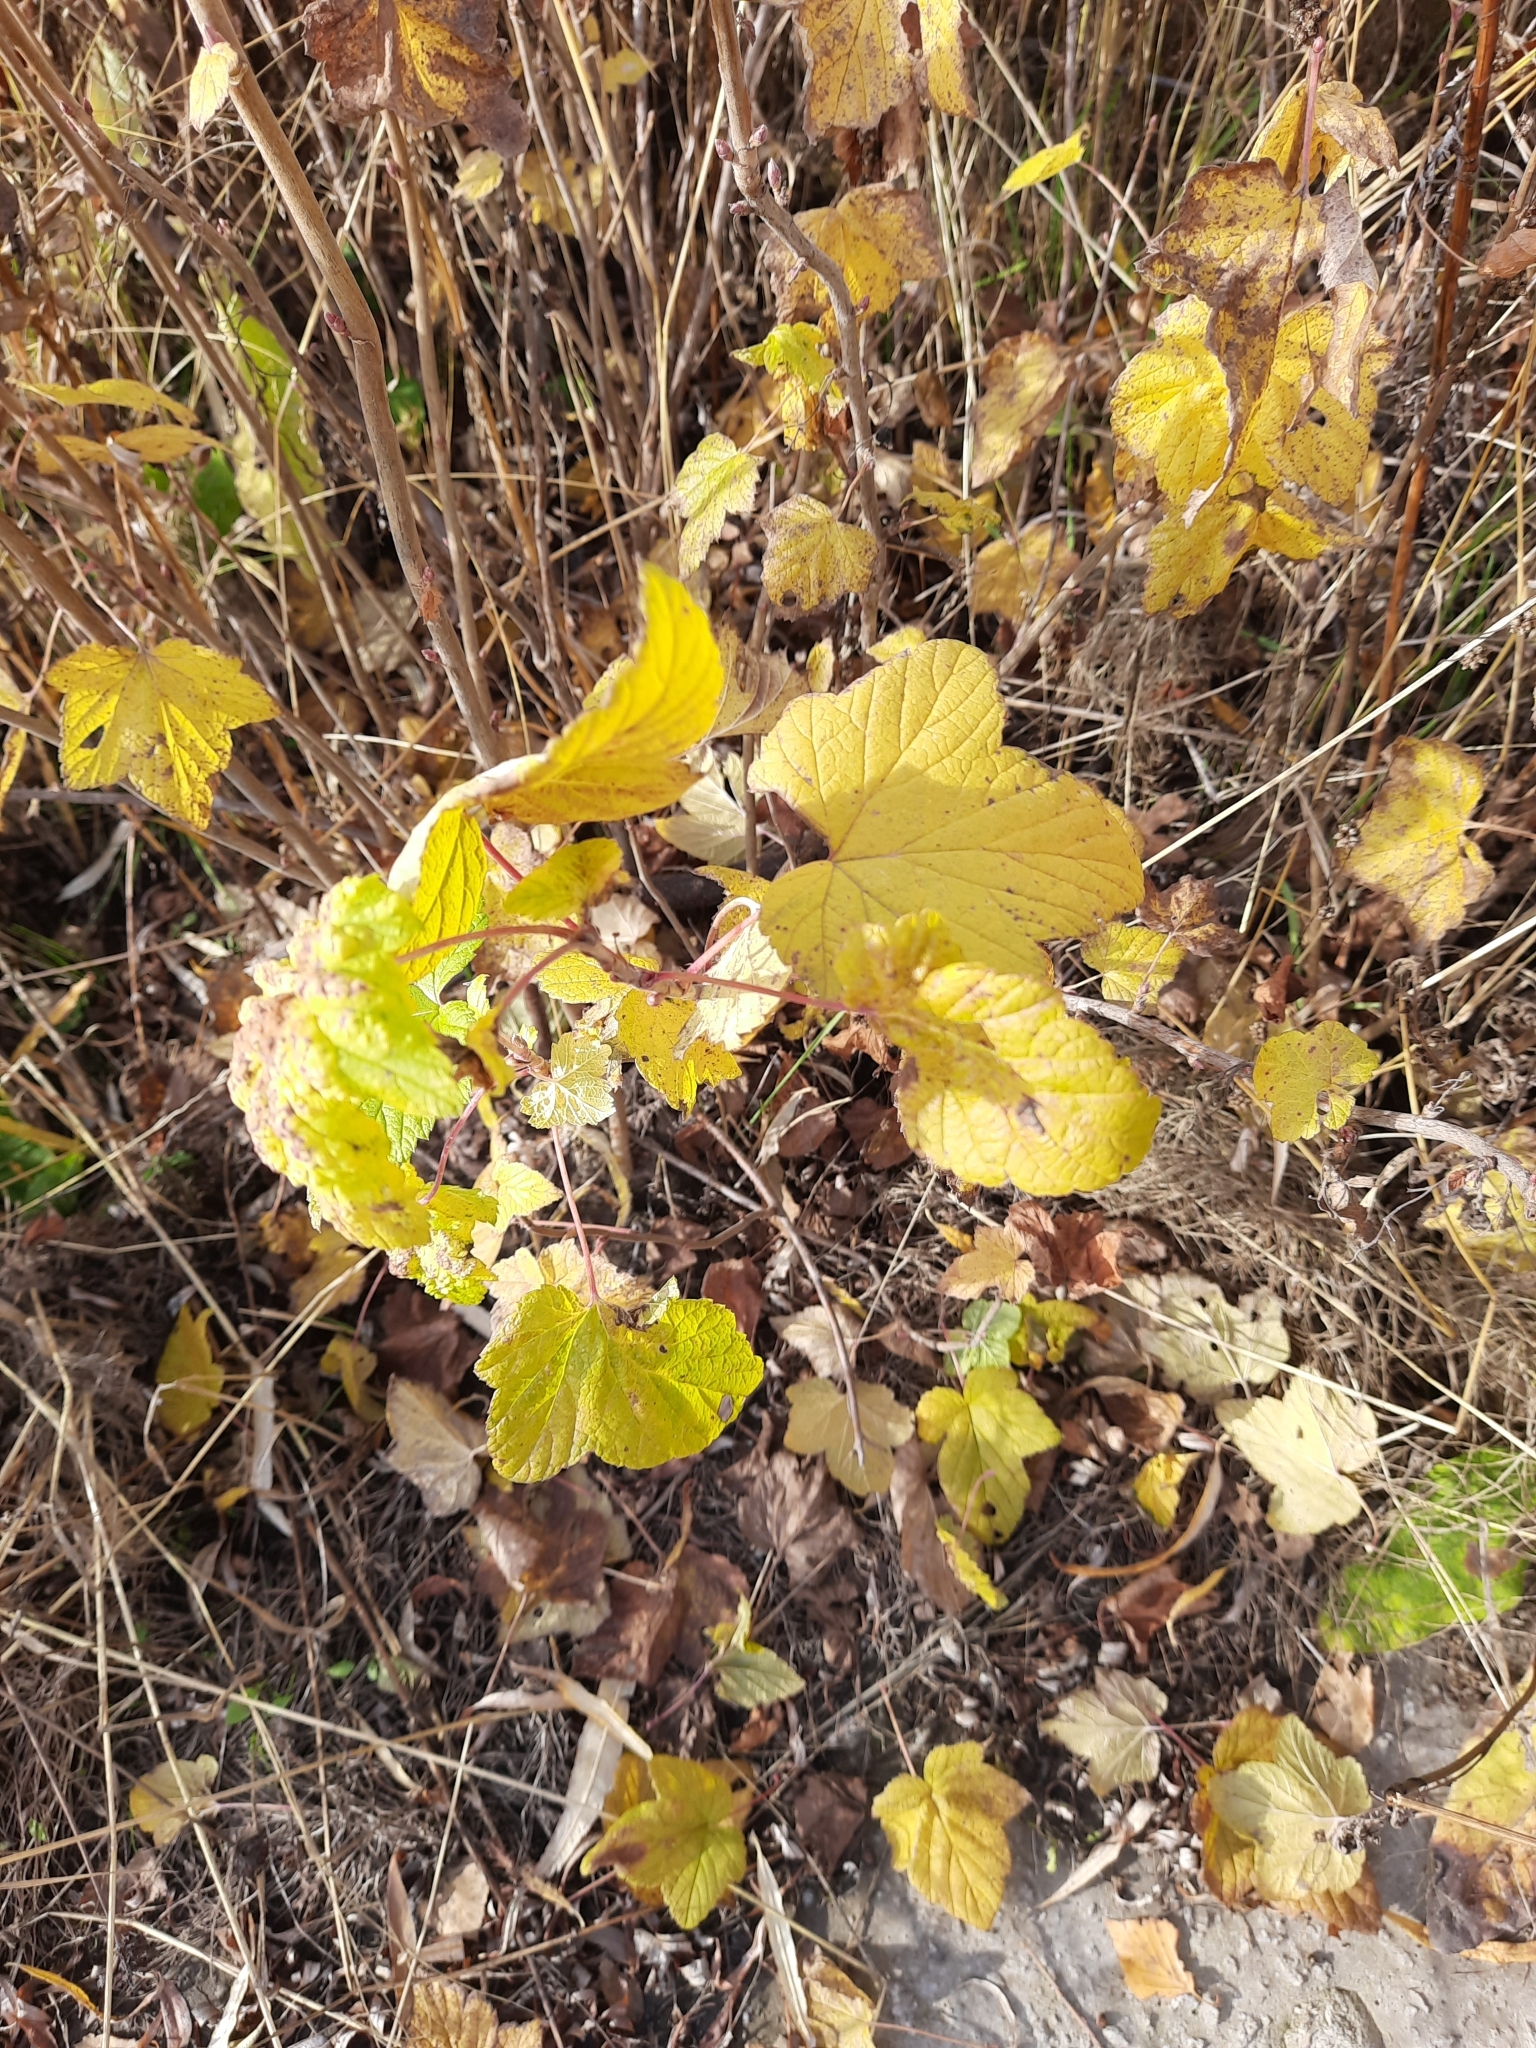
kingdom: Plantae
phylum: Tracheophyta
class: Magnoliopsida
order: Saxifragales
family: Grossulariaceae
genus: Ribes
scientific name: Ribes nigrum
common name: Black currant
